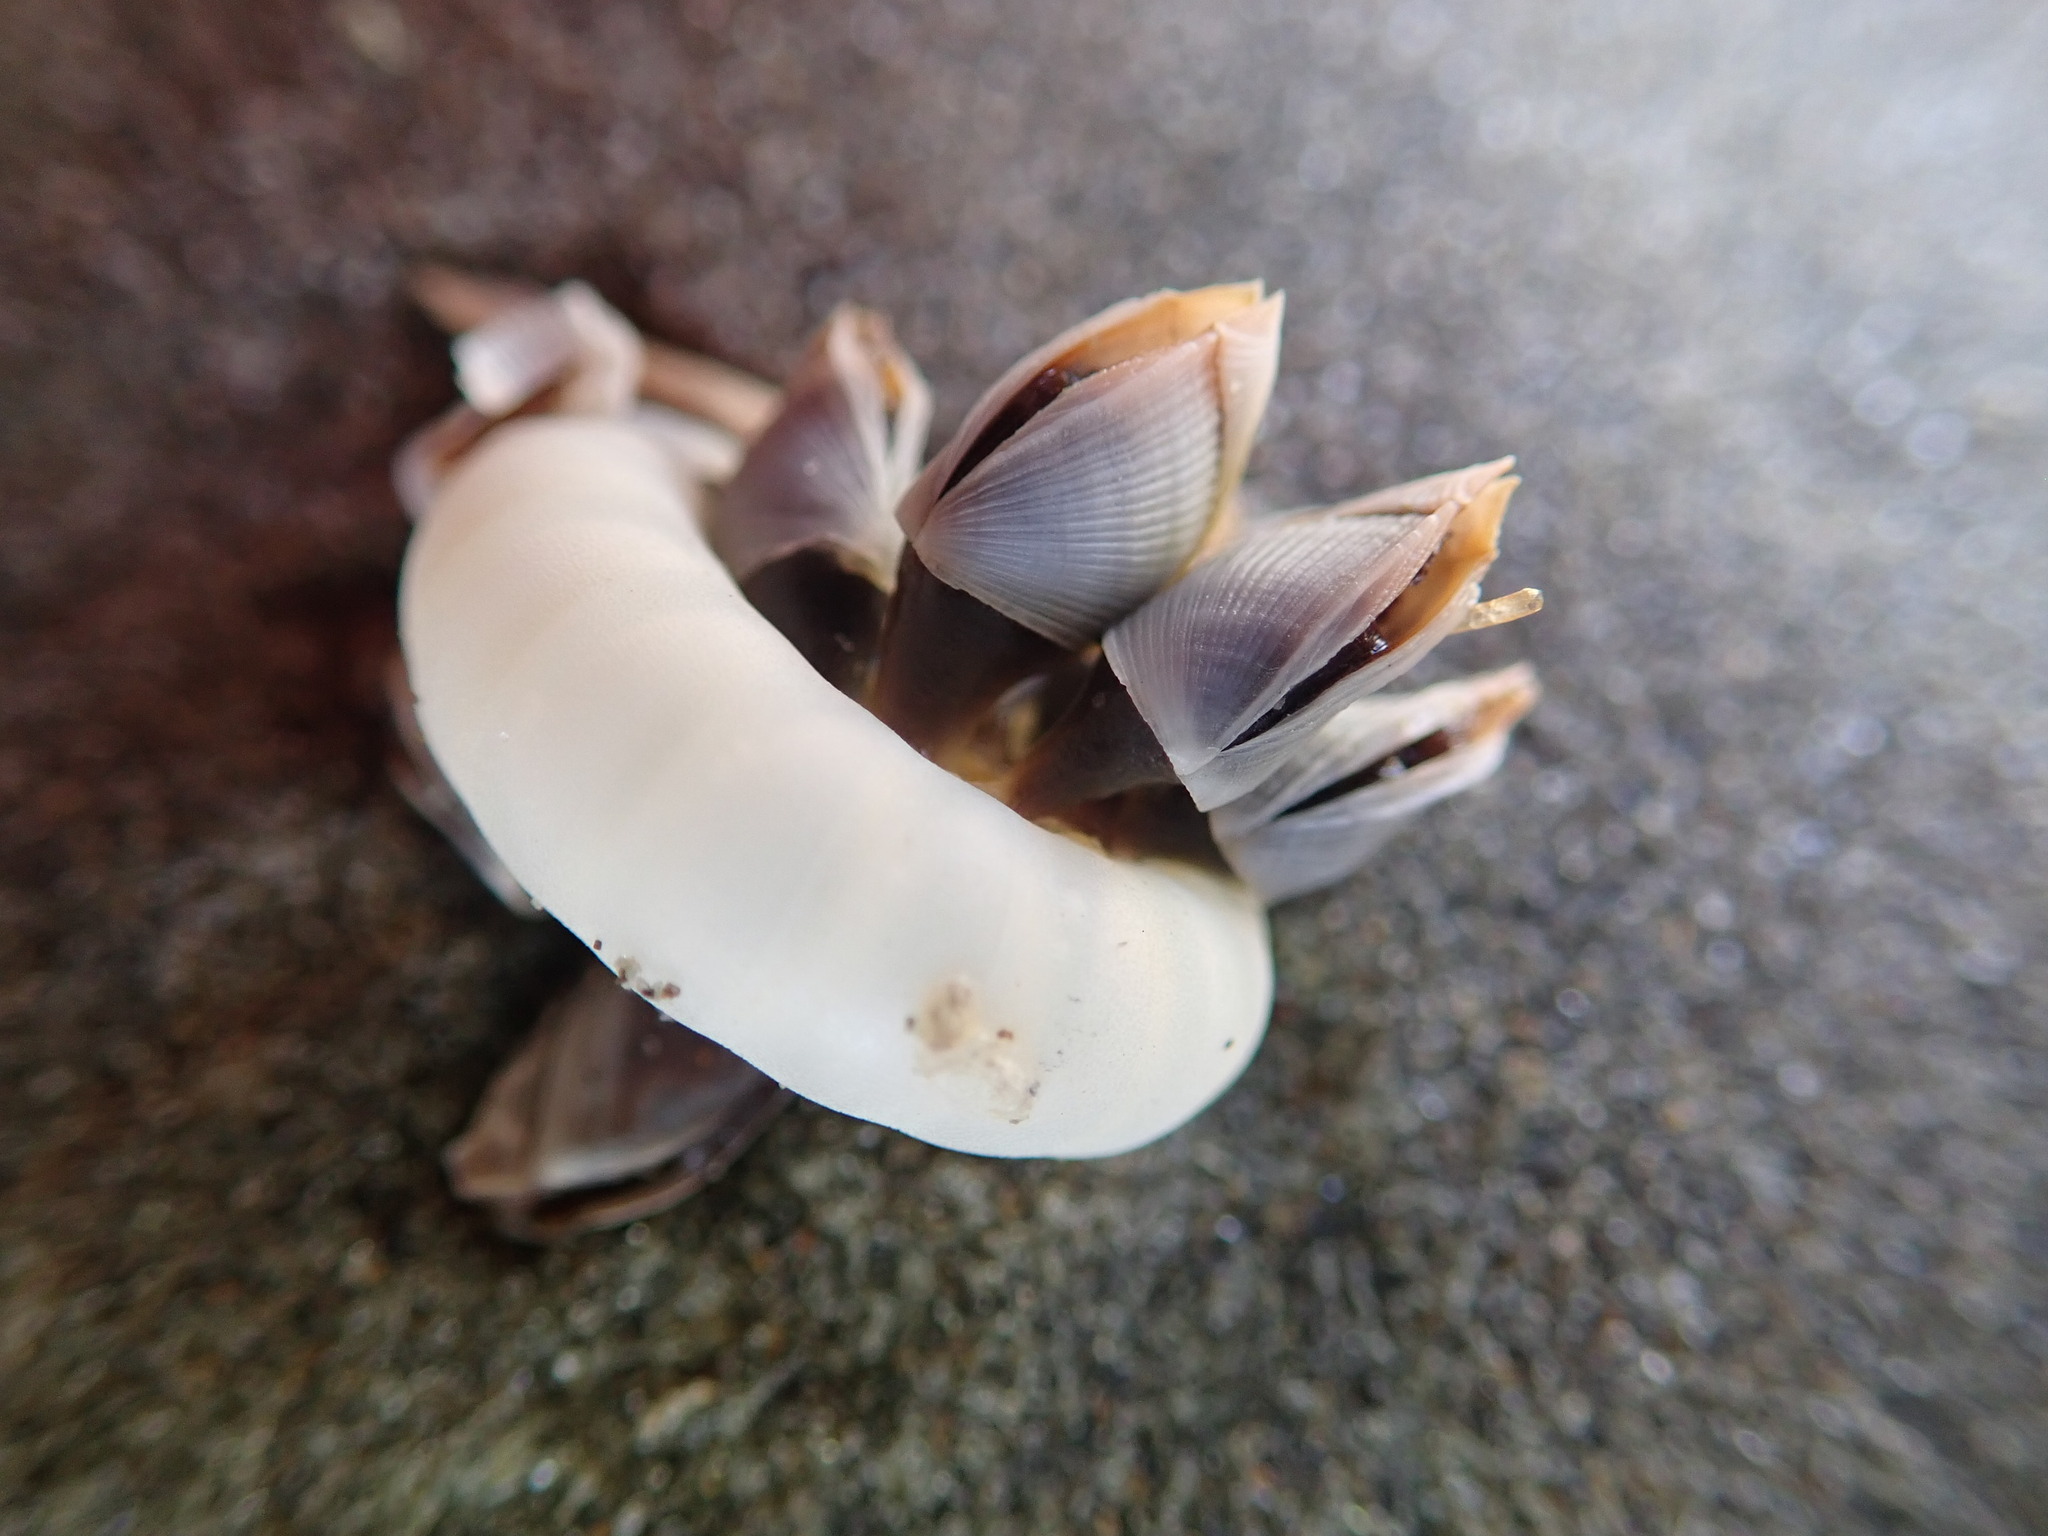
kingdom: Animalia
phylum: Arthropoda
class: Maxillopoda
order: Pedunculata
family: Lepadidae
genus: Lepas
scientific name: Lepas pectinata
